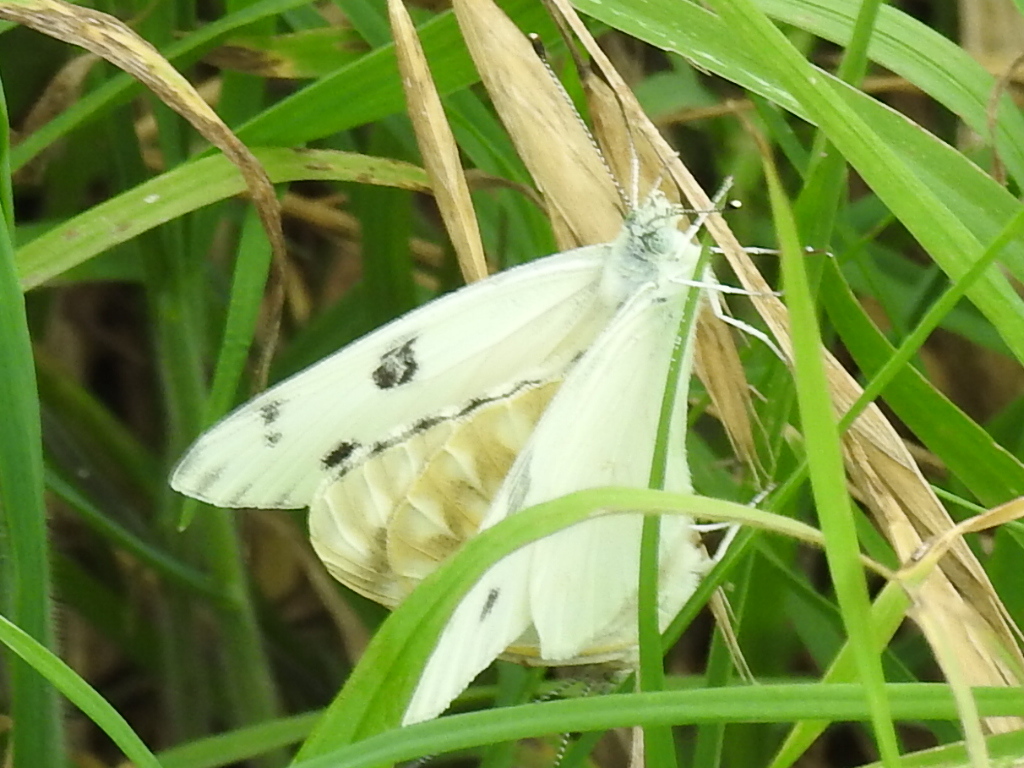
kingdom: Animalia
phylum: Arthropoda
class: Insecta
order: Lepidoptera
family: Pieridae
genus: Pontia
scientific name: Pontia protodice
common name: Checkered white
